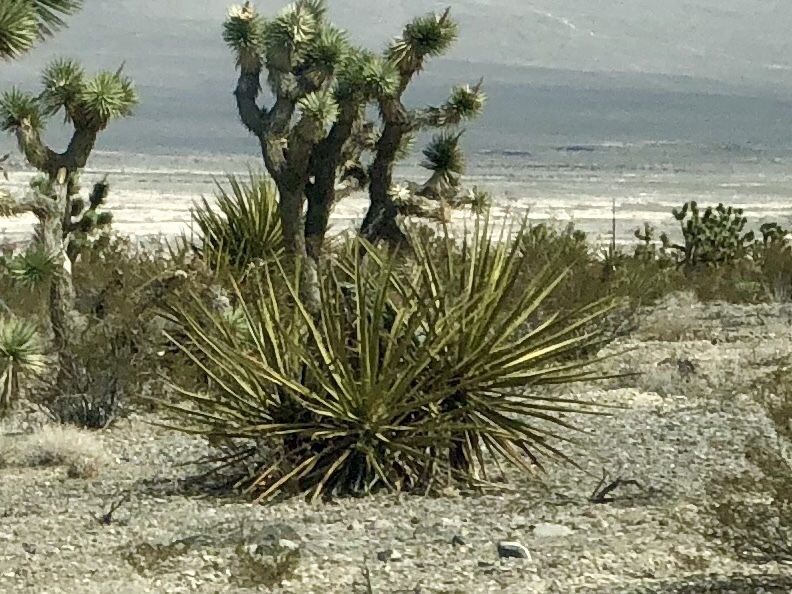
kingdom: Plantae
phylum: Tracheophyta
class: Liliopsida
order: Asparagales
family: Asparagaceae
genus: Yucca
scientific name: Yucca schidigera
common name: Mojave yucca
